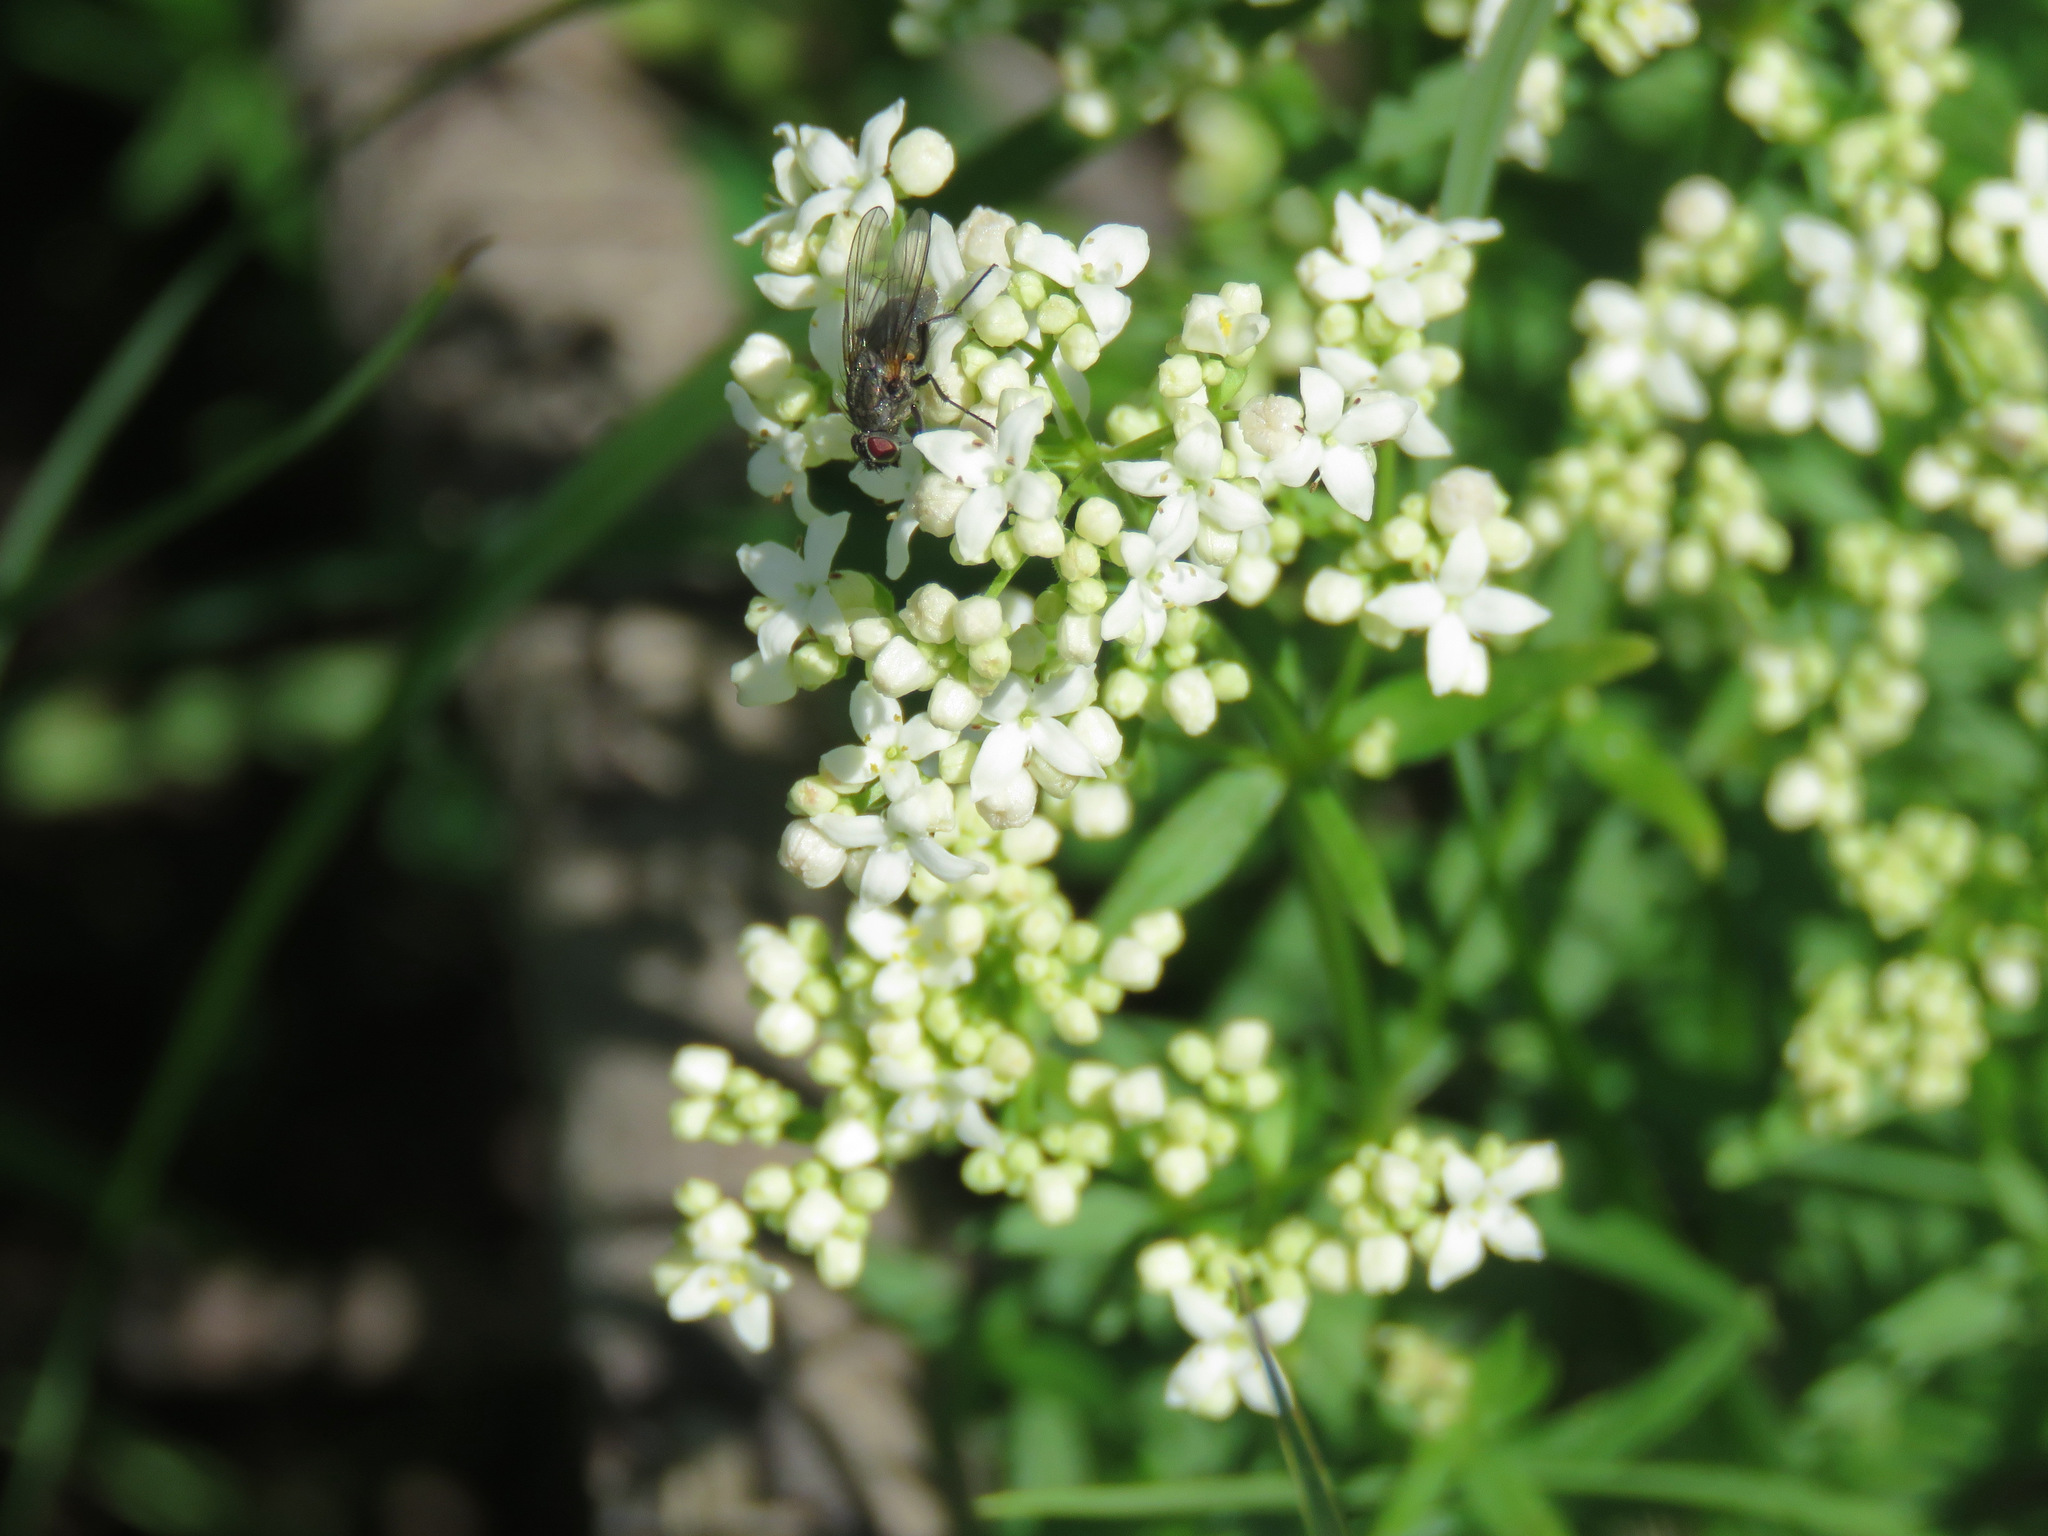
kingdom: Plantae
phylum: Tracheophyta
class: Magnoliopsida
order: Gentianales
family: Rubiaceae
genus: Galium
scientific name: Galium boreale
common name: Northern bedstraw
